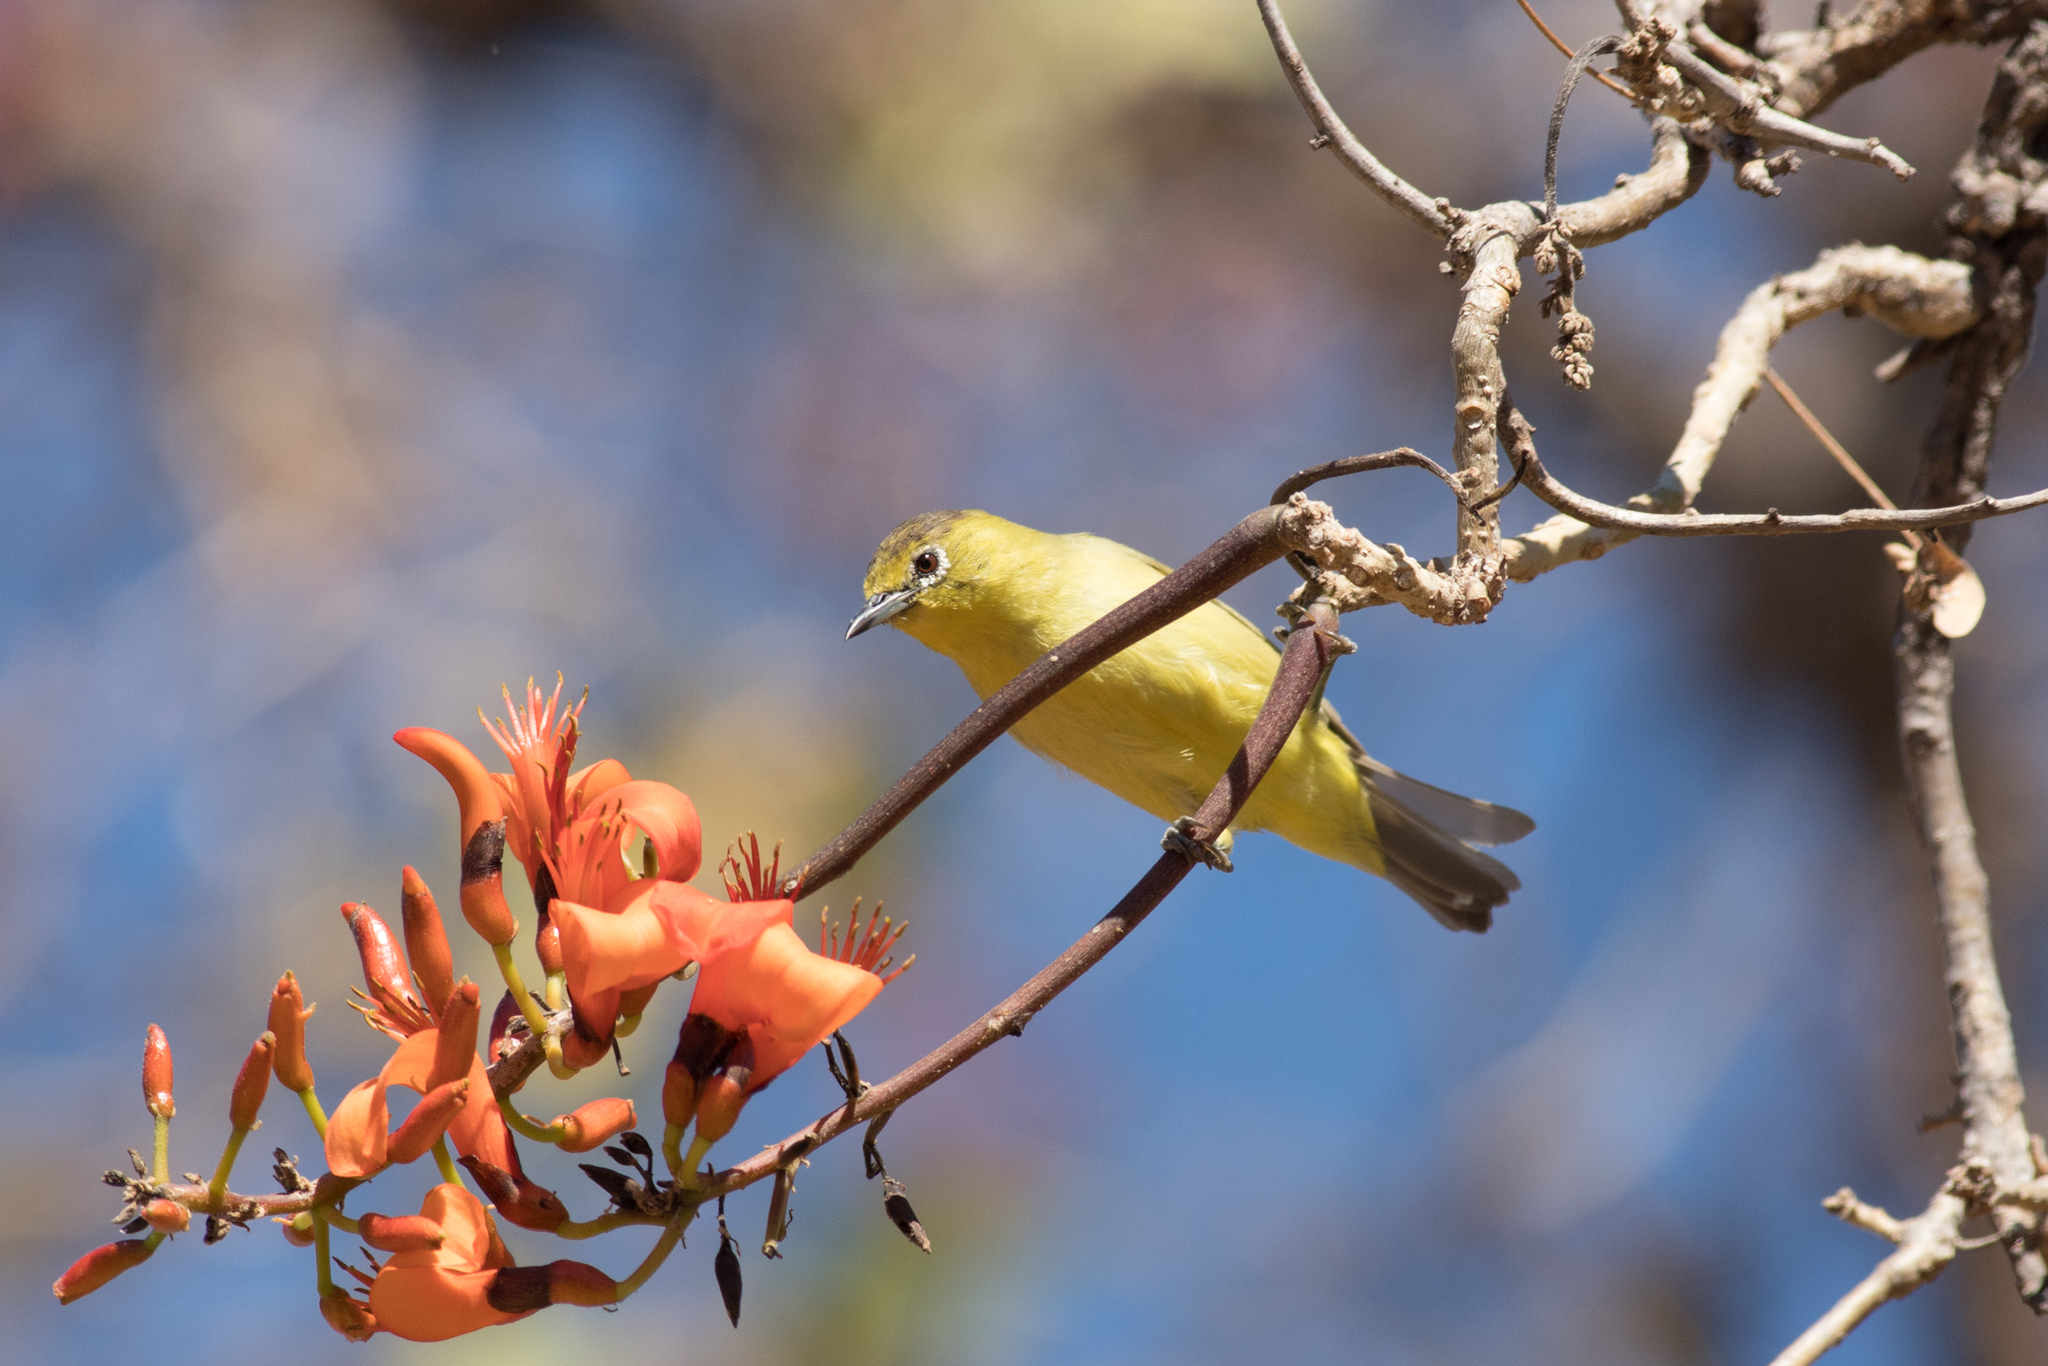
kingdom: Animalia
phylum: Chordata
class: Aves
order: Passeriformes
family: Zosteropidae
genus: Zosterops
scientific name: Zosterops luteus
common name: Canary white-eye
